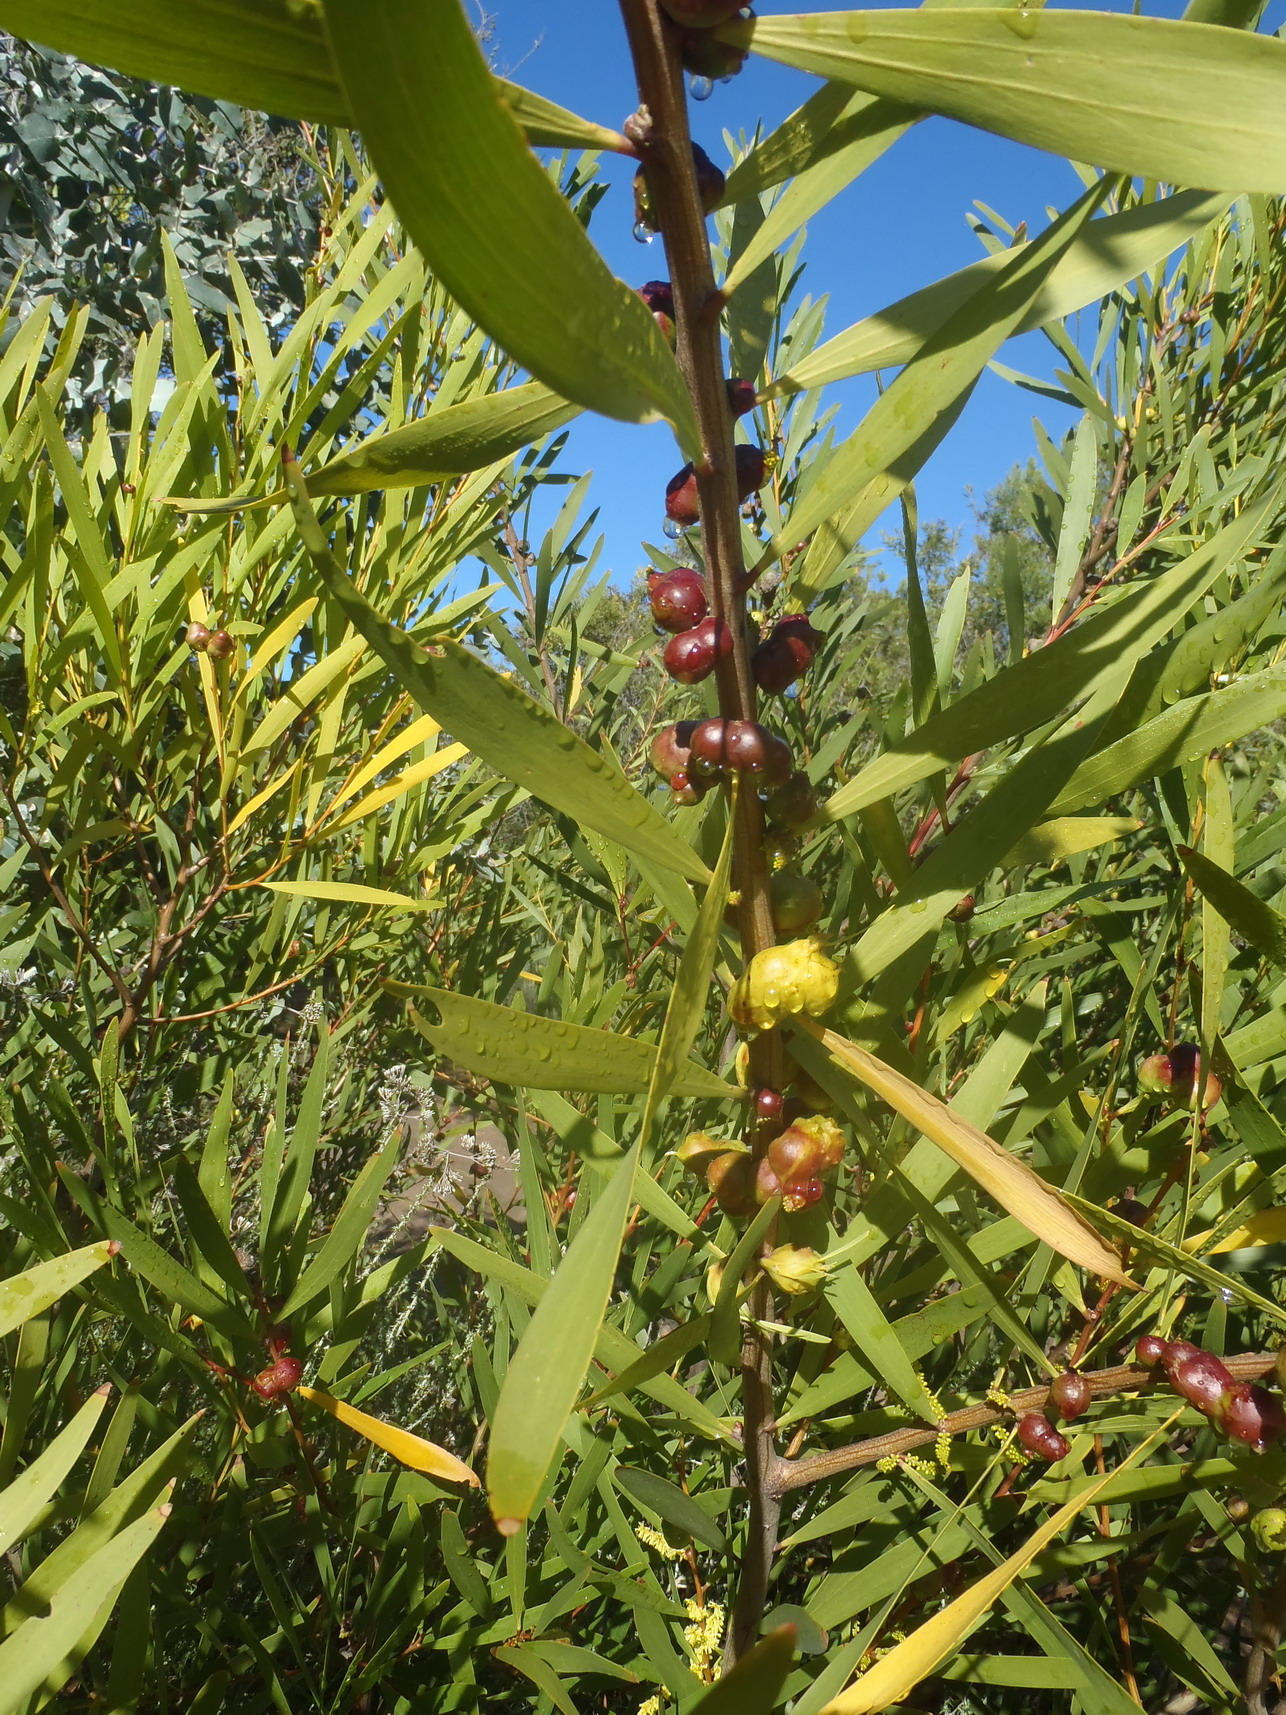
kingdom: Animalia
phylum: Arthropoda
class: Insecta
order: Hymenoptera
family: Pteromalidae
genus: Trichilogaster
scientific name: Trichilogaster acaciaelongifoliae
